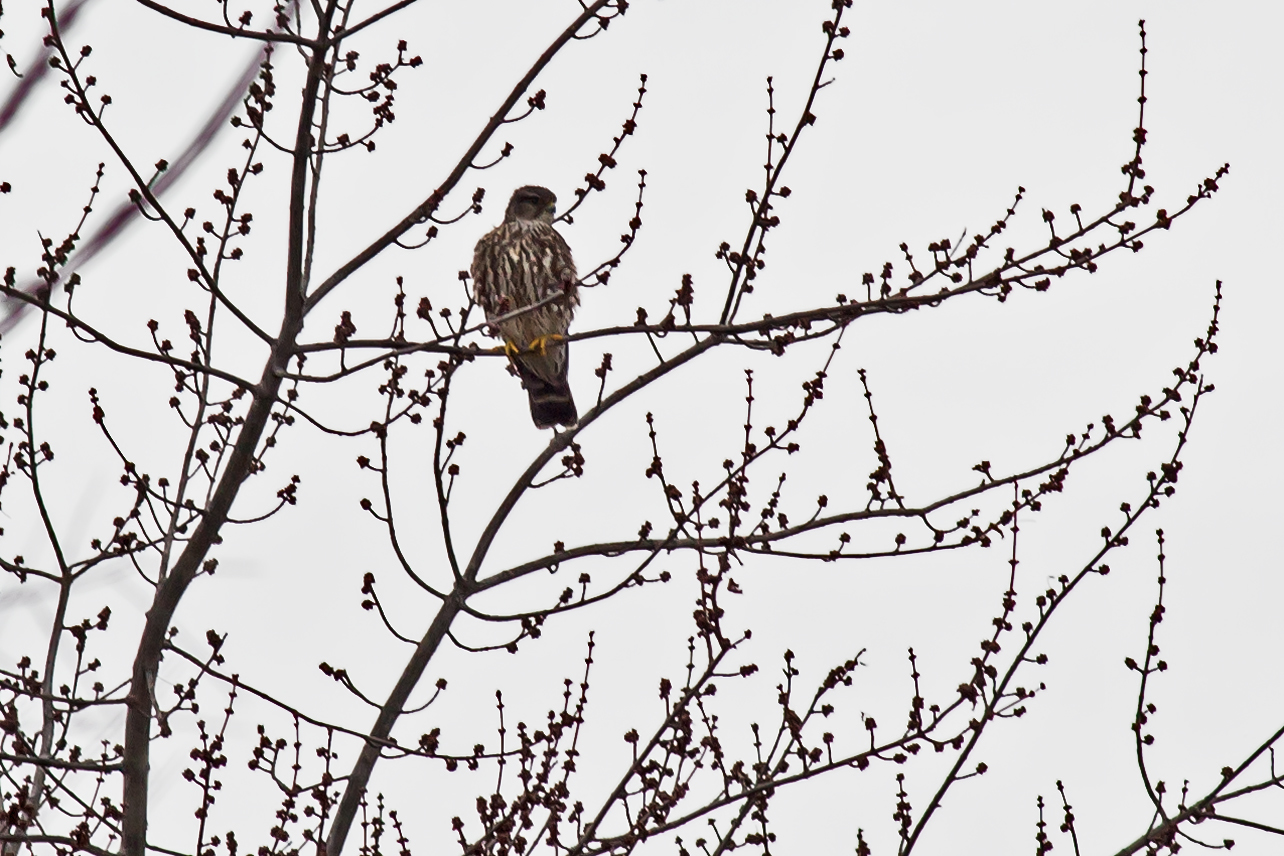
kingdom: Animalia
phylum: Chordata
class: Aves
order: Falconiformes
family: Falconidae
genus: Falco
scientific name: Falco columbarius
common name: Merlin
